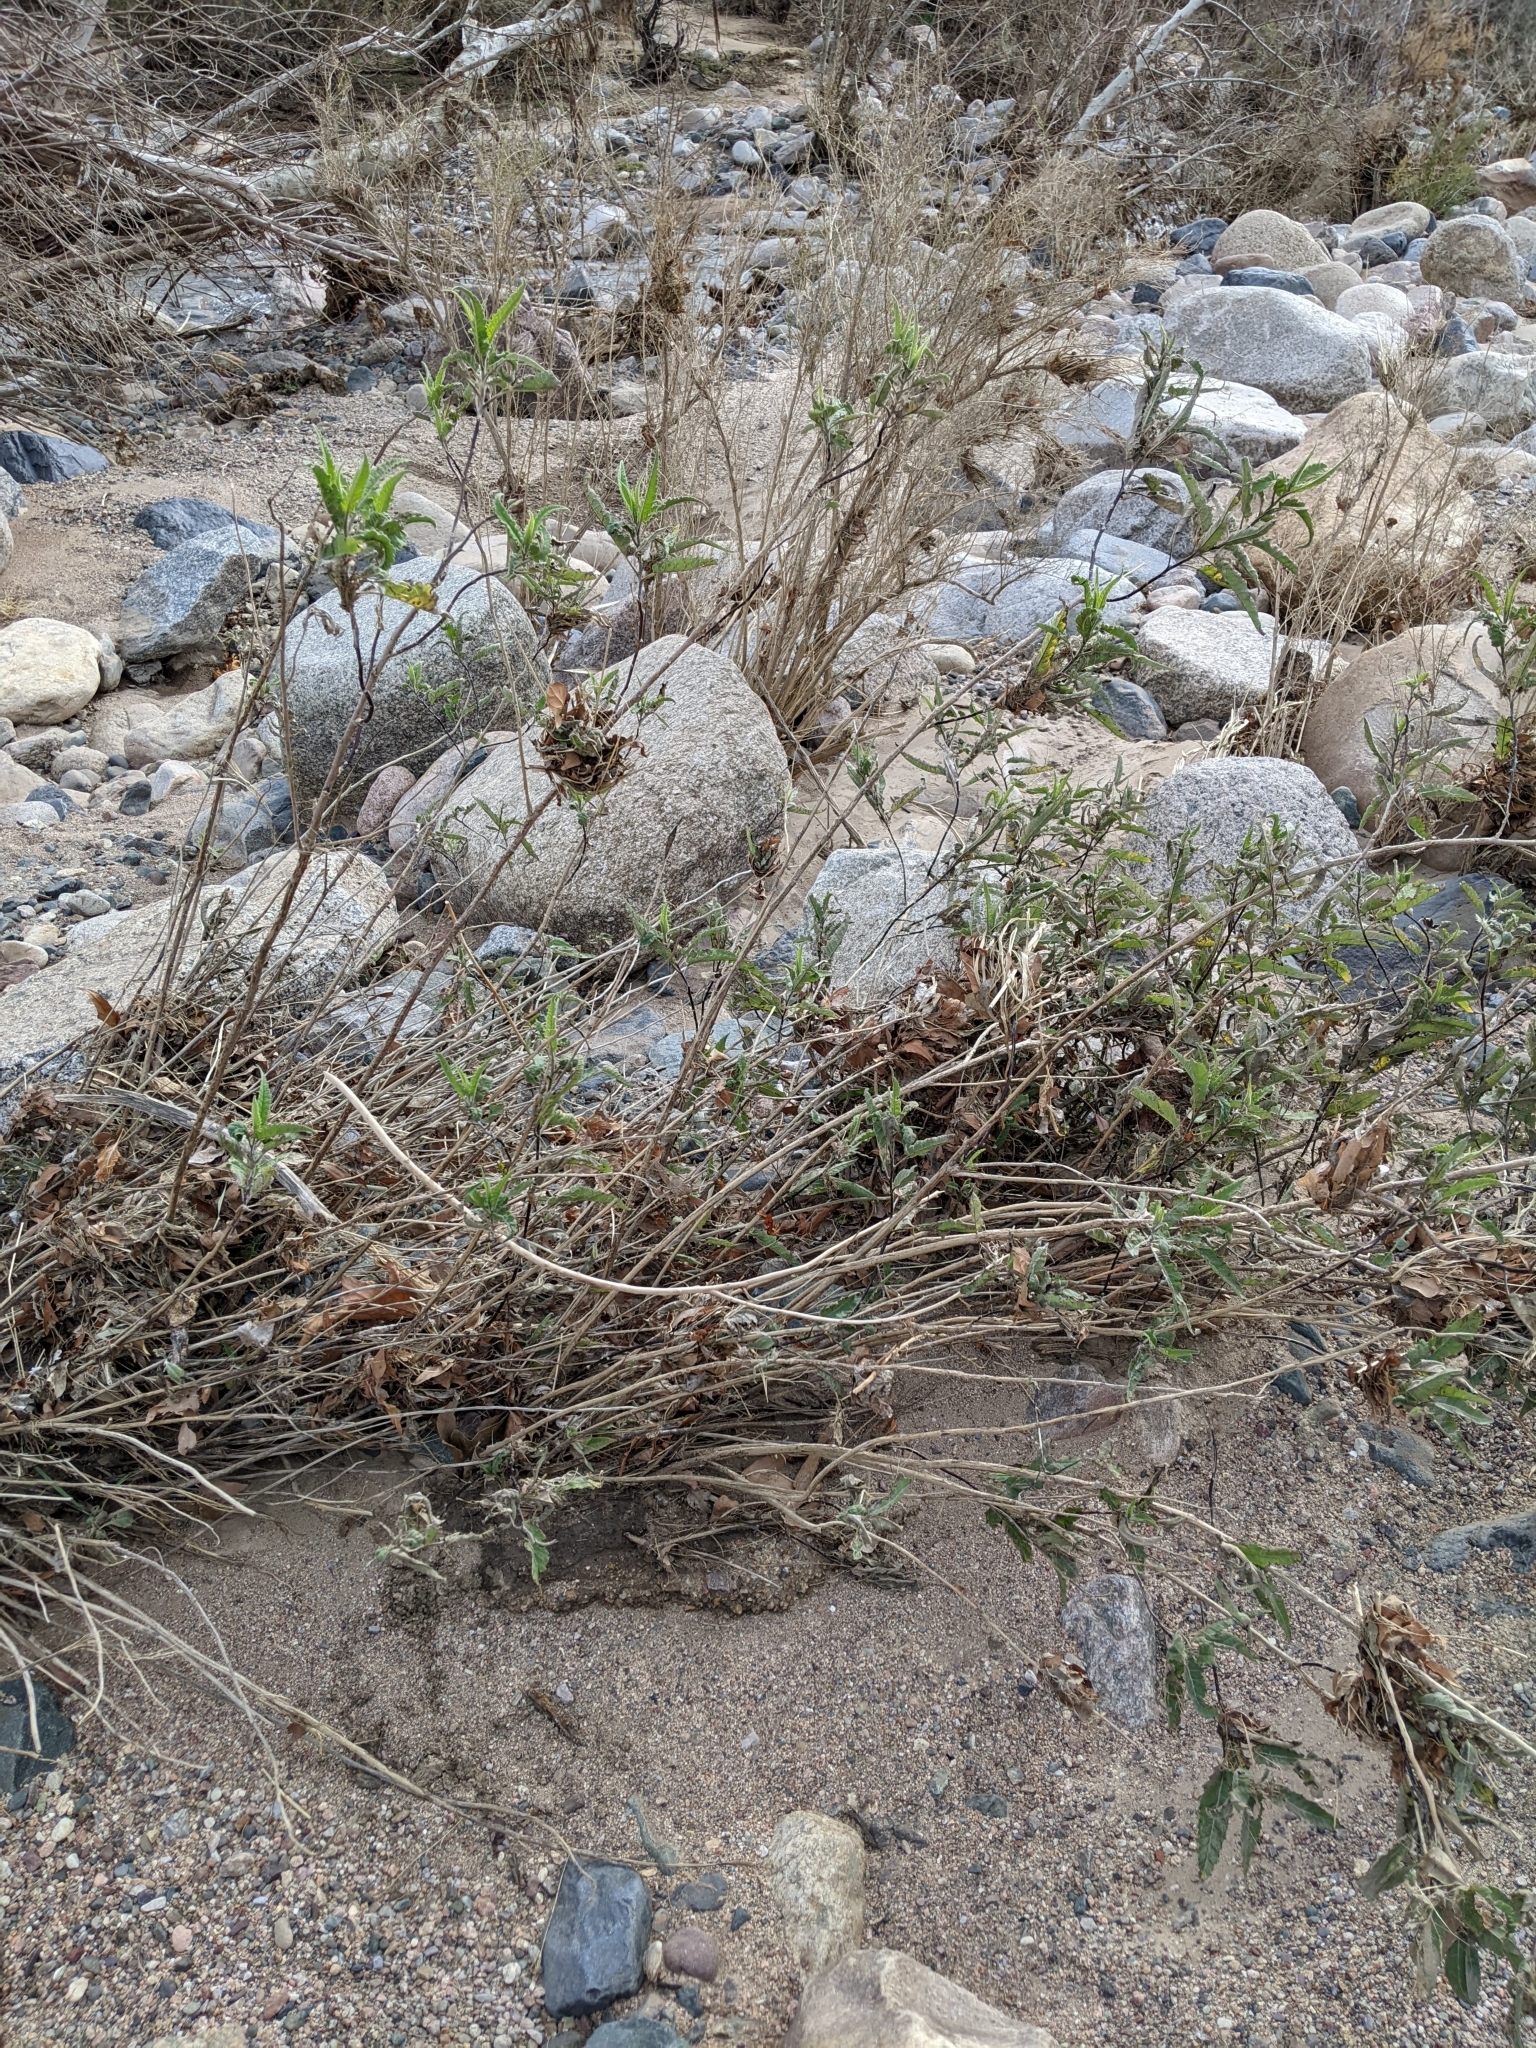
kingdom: Plantae
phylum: Tracheophyta
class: Magnoliopsida
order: Asterales
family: Asteraceae
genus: Ambrosia
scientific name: Ambrosia ambrosioides
